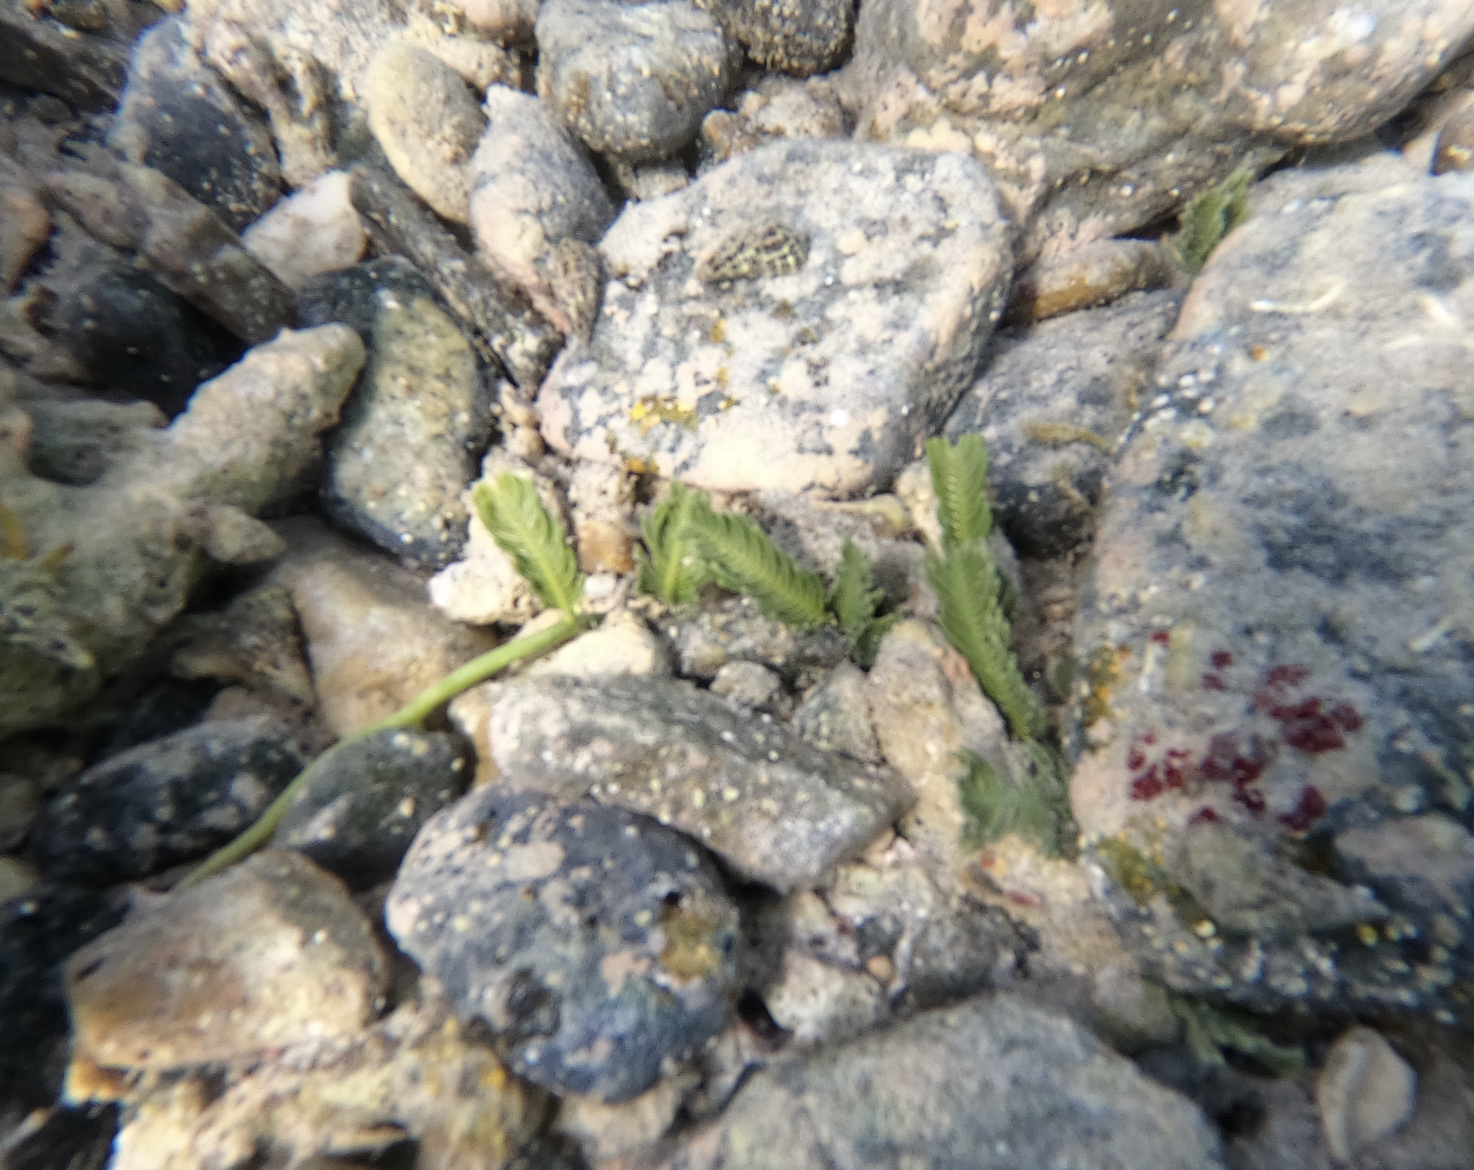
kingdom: Plantae
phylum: Chlorophyta
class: Ulvophyceae
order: Bryopsidales
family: Caulerpaceae
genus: Caulerpa
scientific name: Caulerpa sertularioides
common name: Green feather algae
